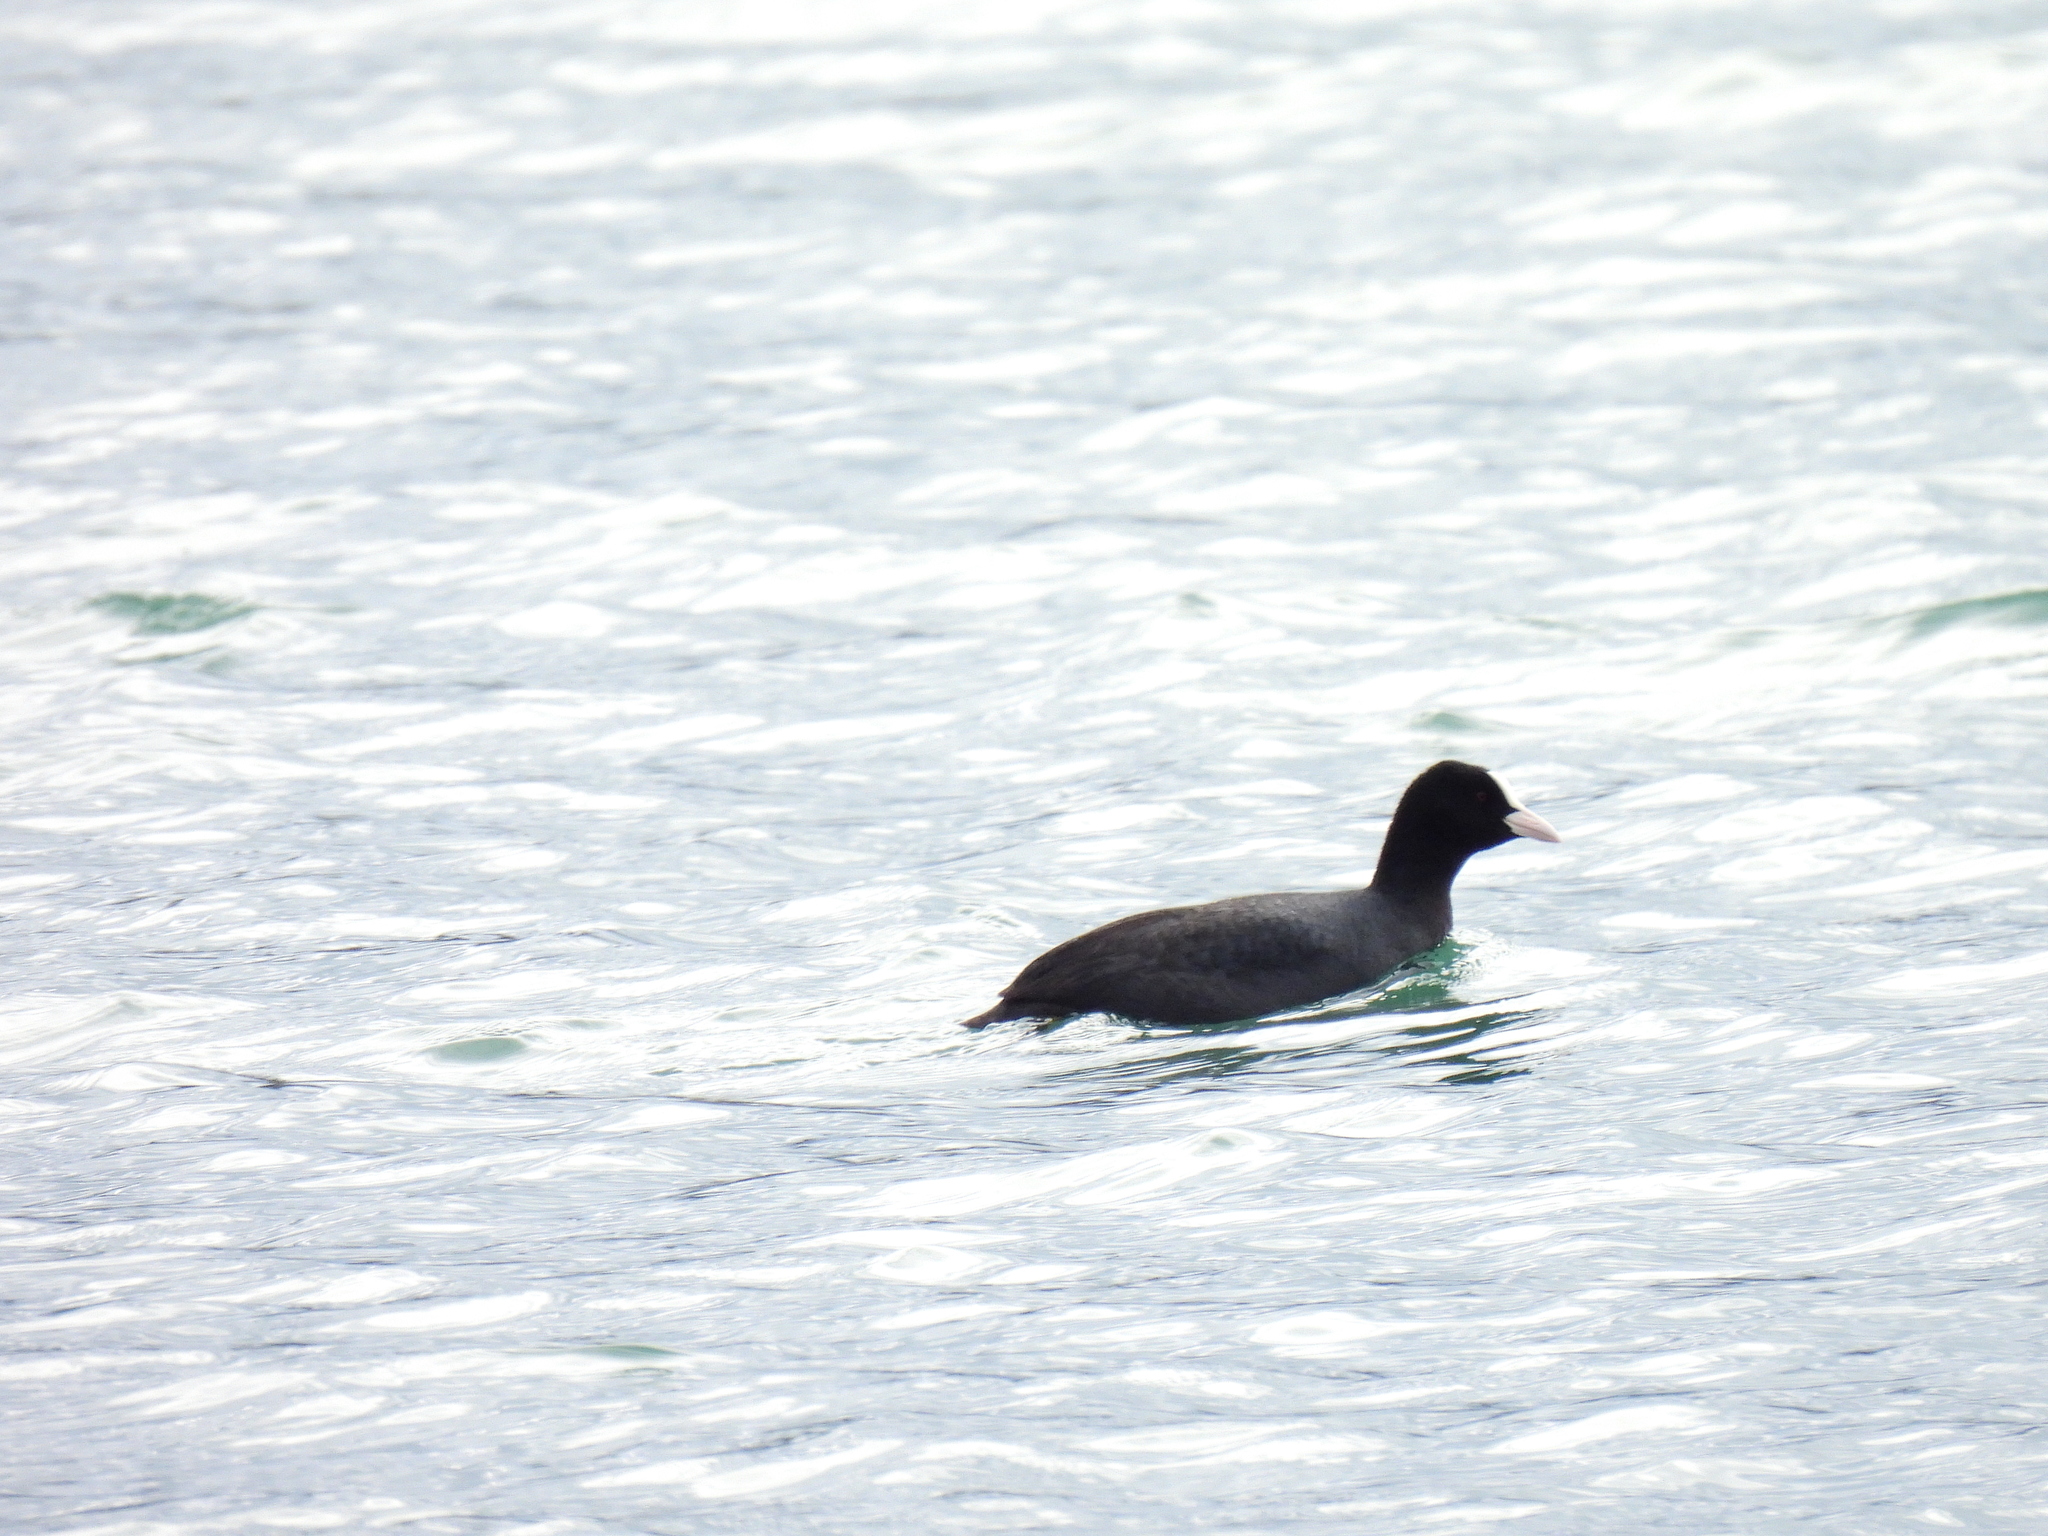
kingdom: Animalia
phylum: Chordata
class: Aves
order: Gruiformes
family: Rallidae
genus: Fulica
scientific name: Fulica atra
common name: Eurasian coot
